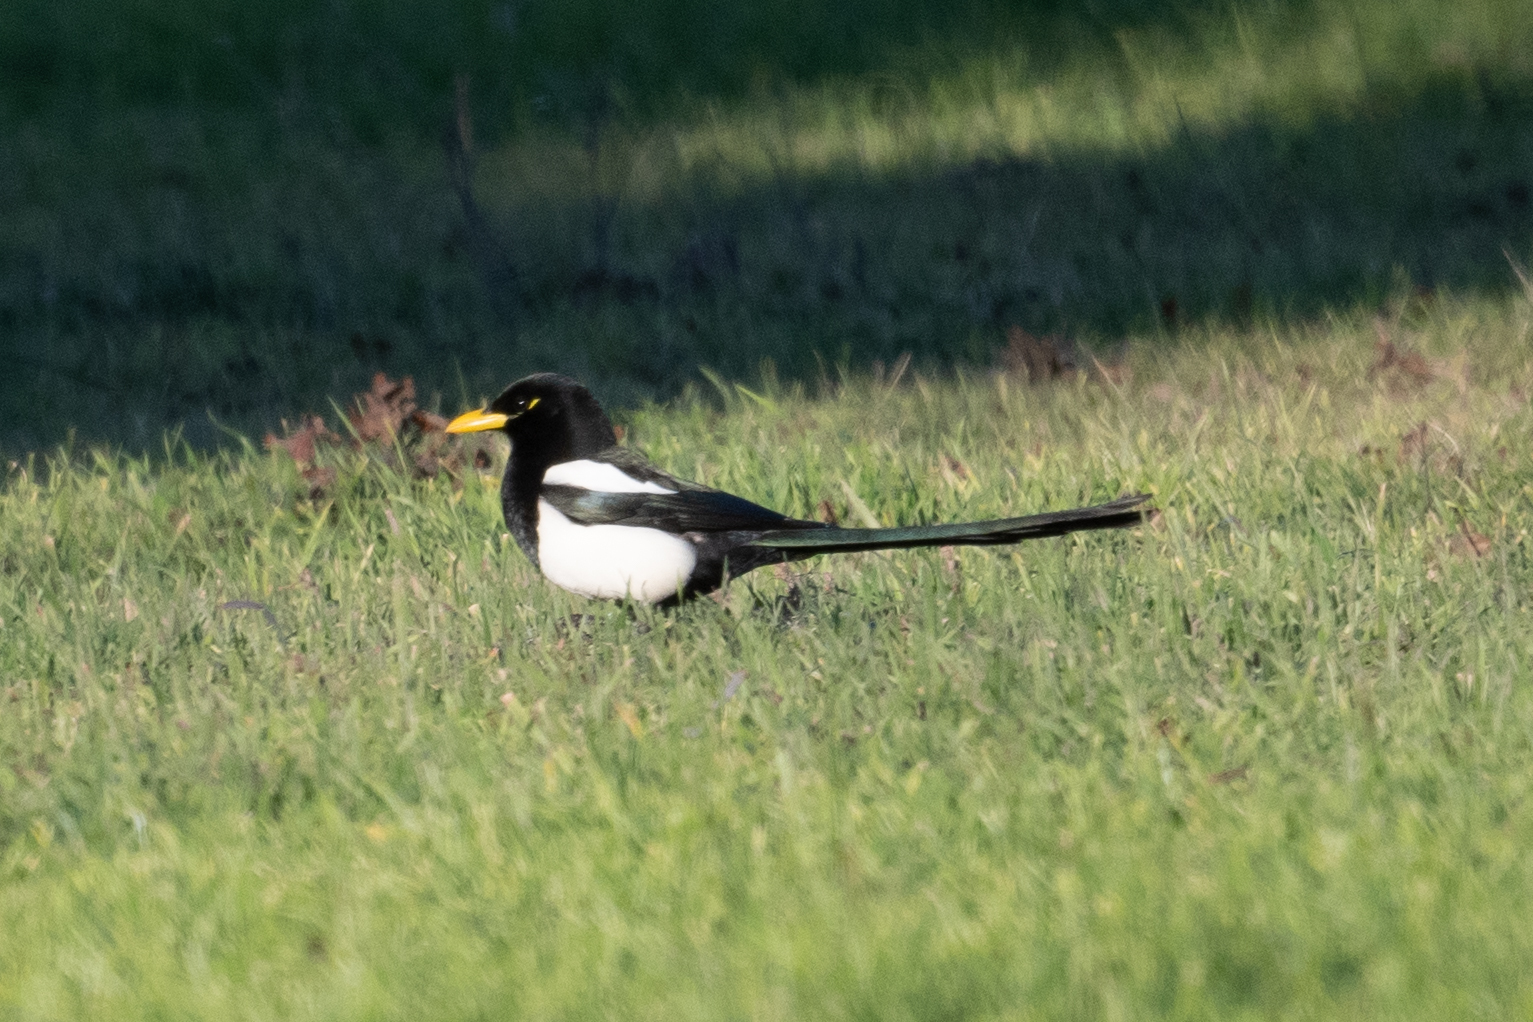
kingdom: Animalia
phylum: Chordata
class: Aves
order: Passeriformes
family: Corvidae
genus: Pica
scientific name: Pica nuttalli
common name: Yellow-billed magpie
